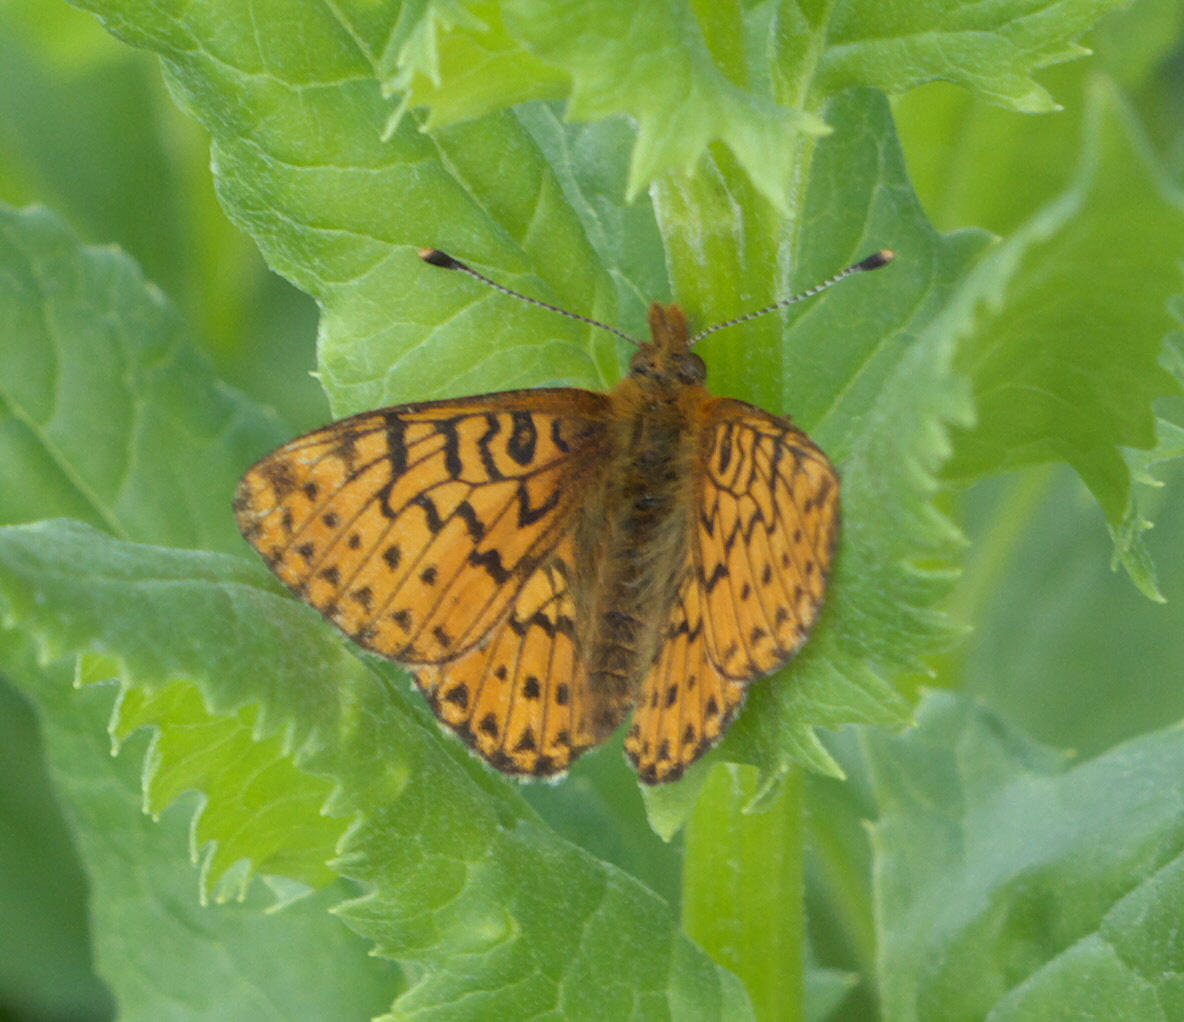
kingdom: Animalia
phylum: Arthropoda
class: Insecta
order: Lepidoptera
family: Nymphalidae
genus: Boloria
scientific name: Boloria chariclea
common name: Arctic fritillary
